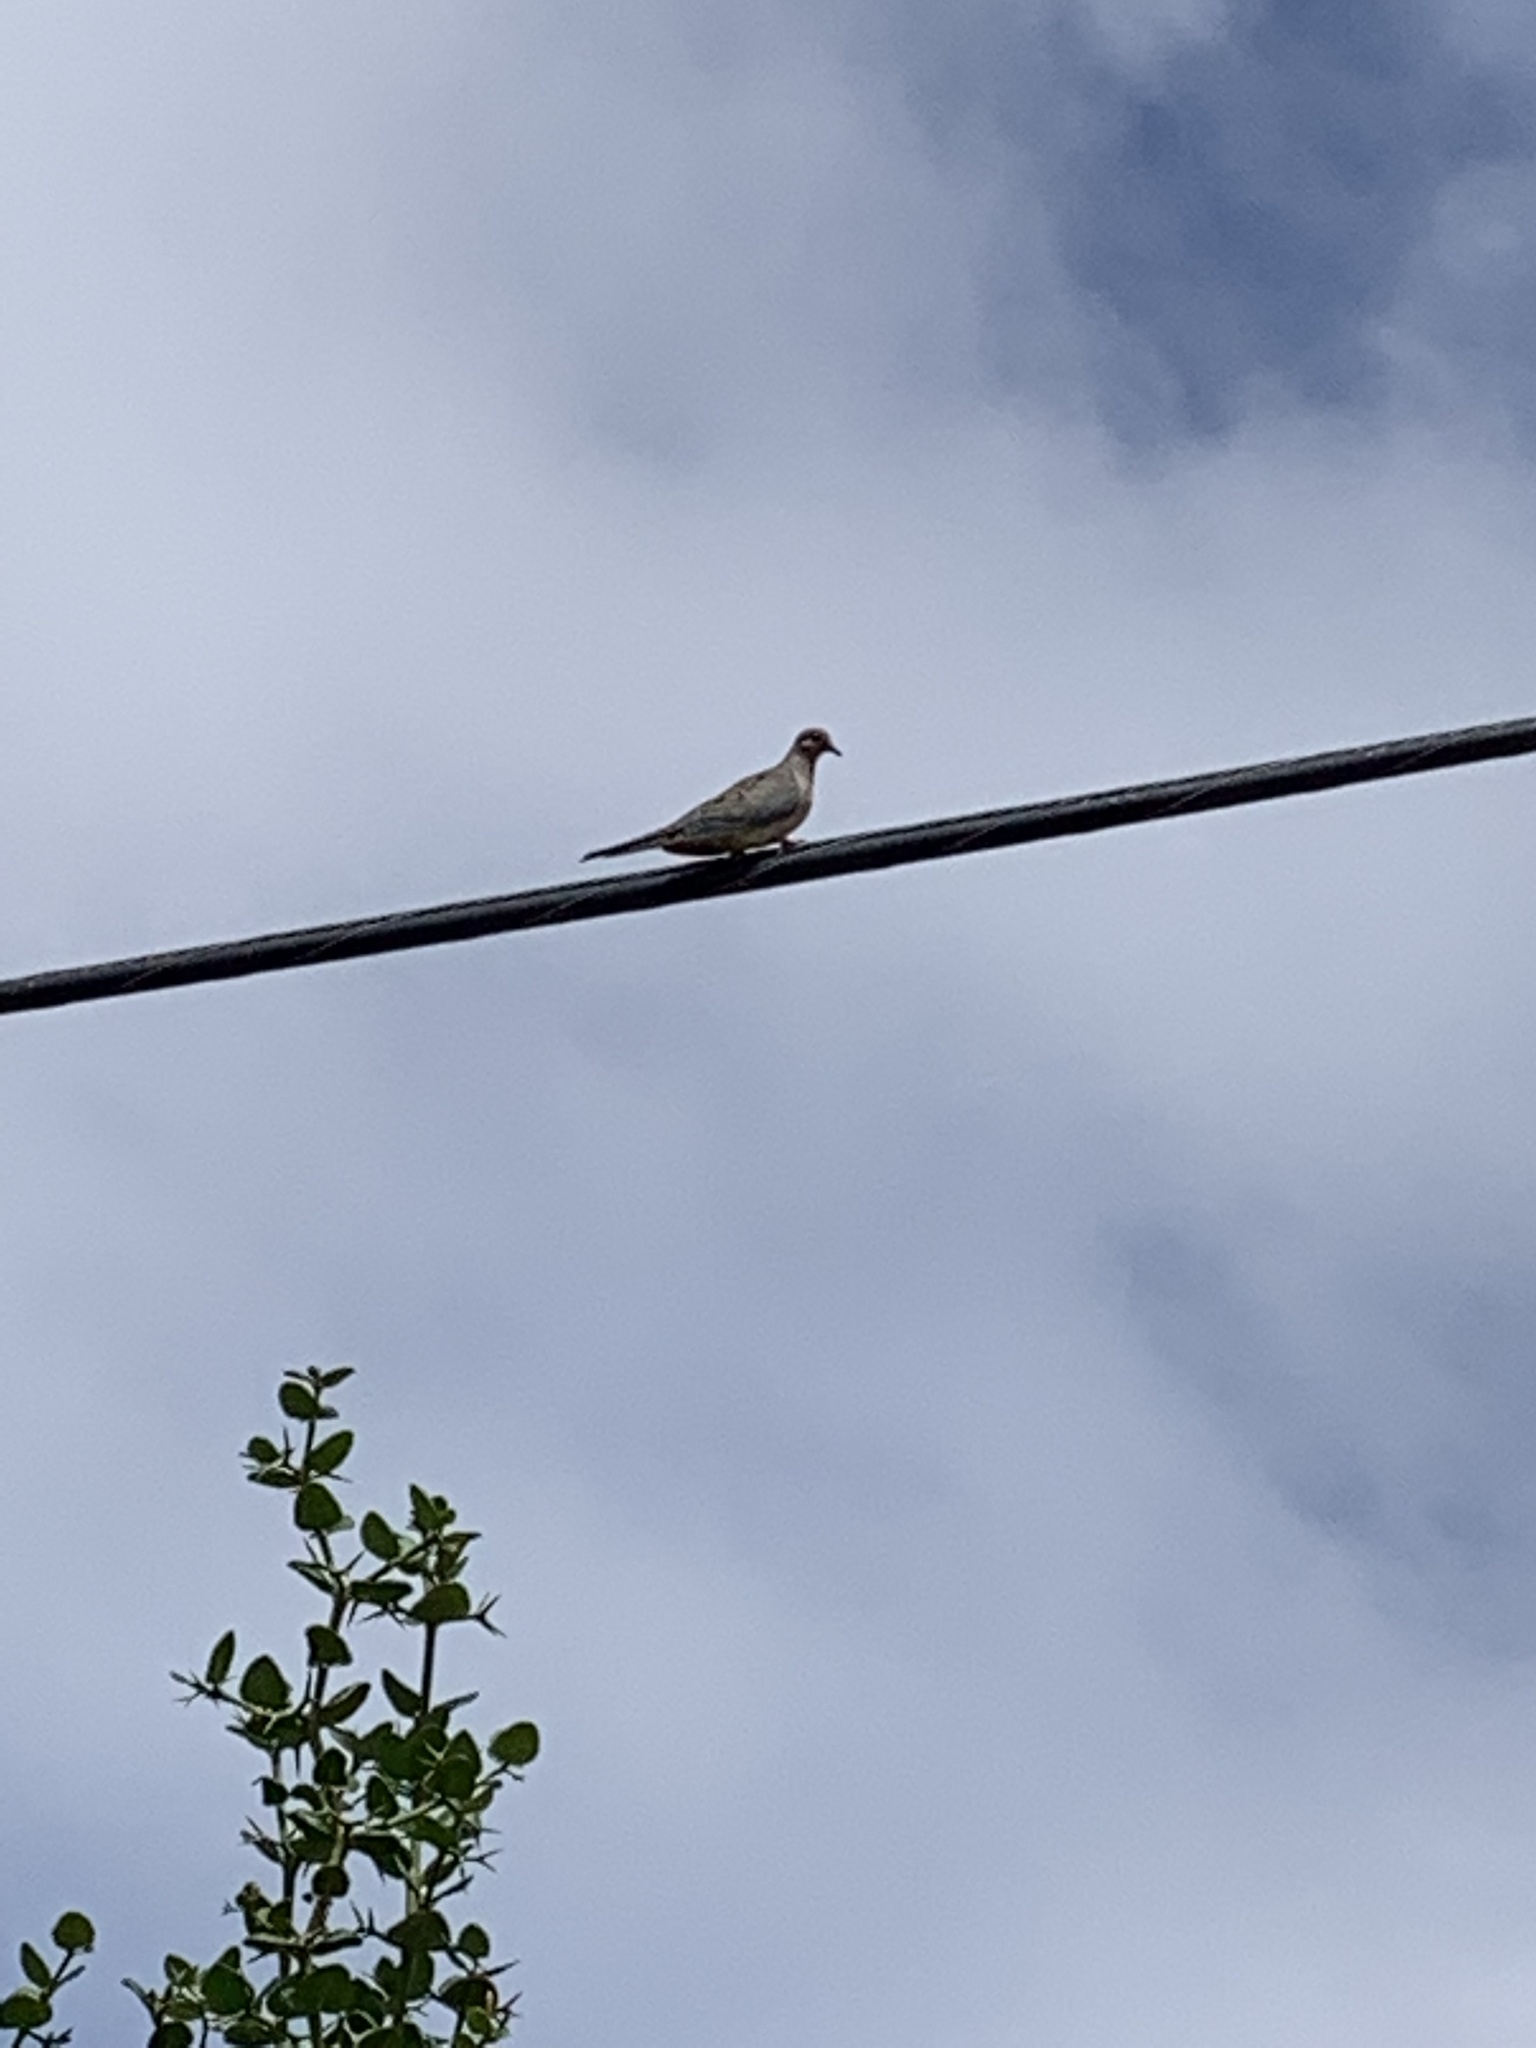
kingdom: Animalia
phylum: Chordata
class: Aves
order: Columbiformes
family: Columbidae
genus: Zenaida
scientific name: Zenaida macroura
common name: Mourning dove
